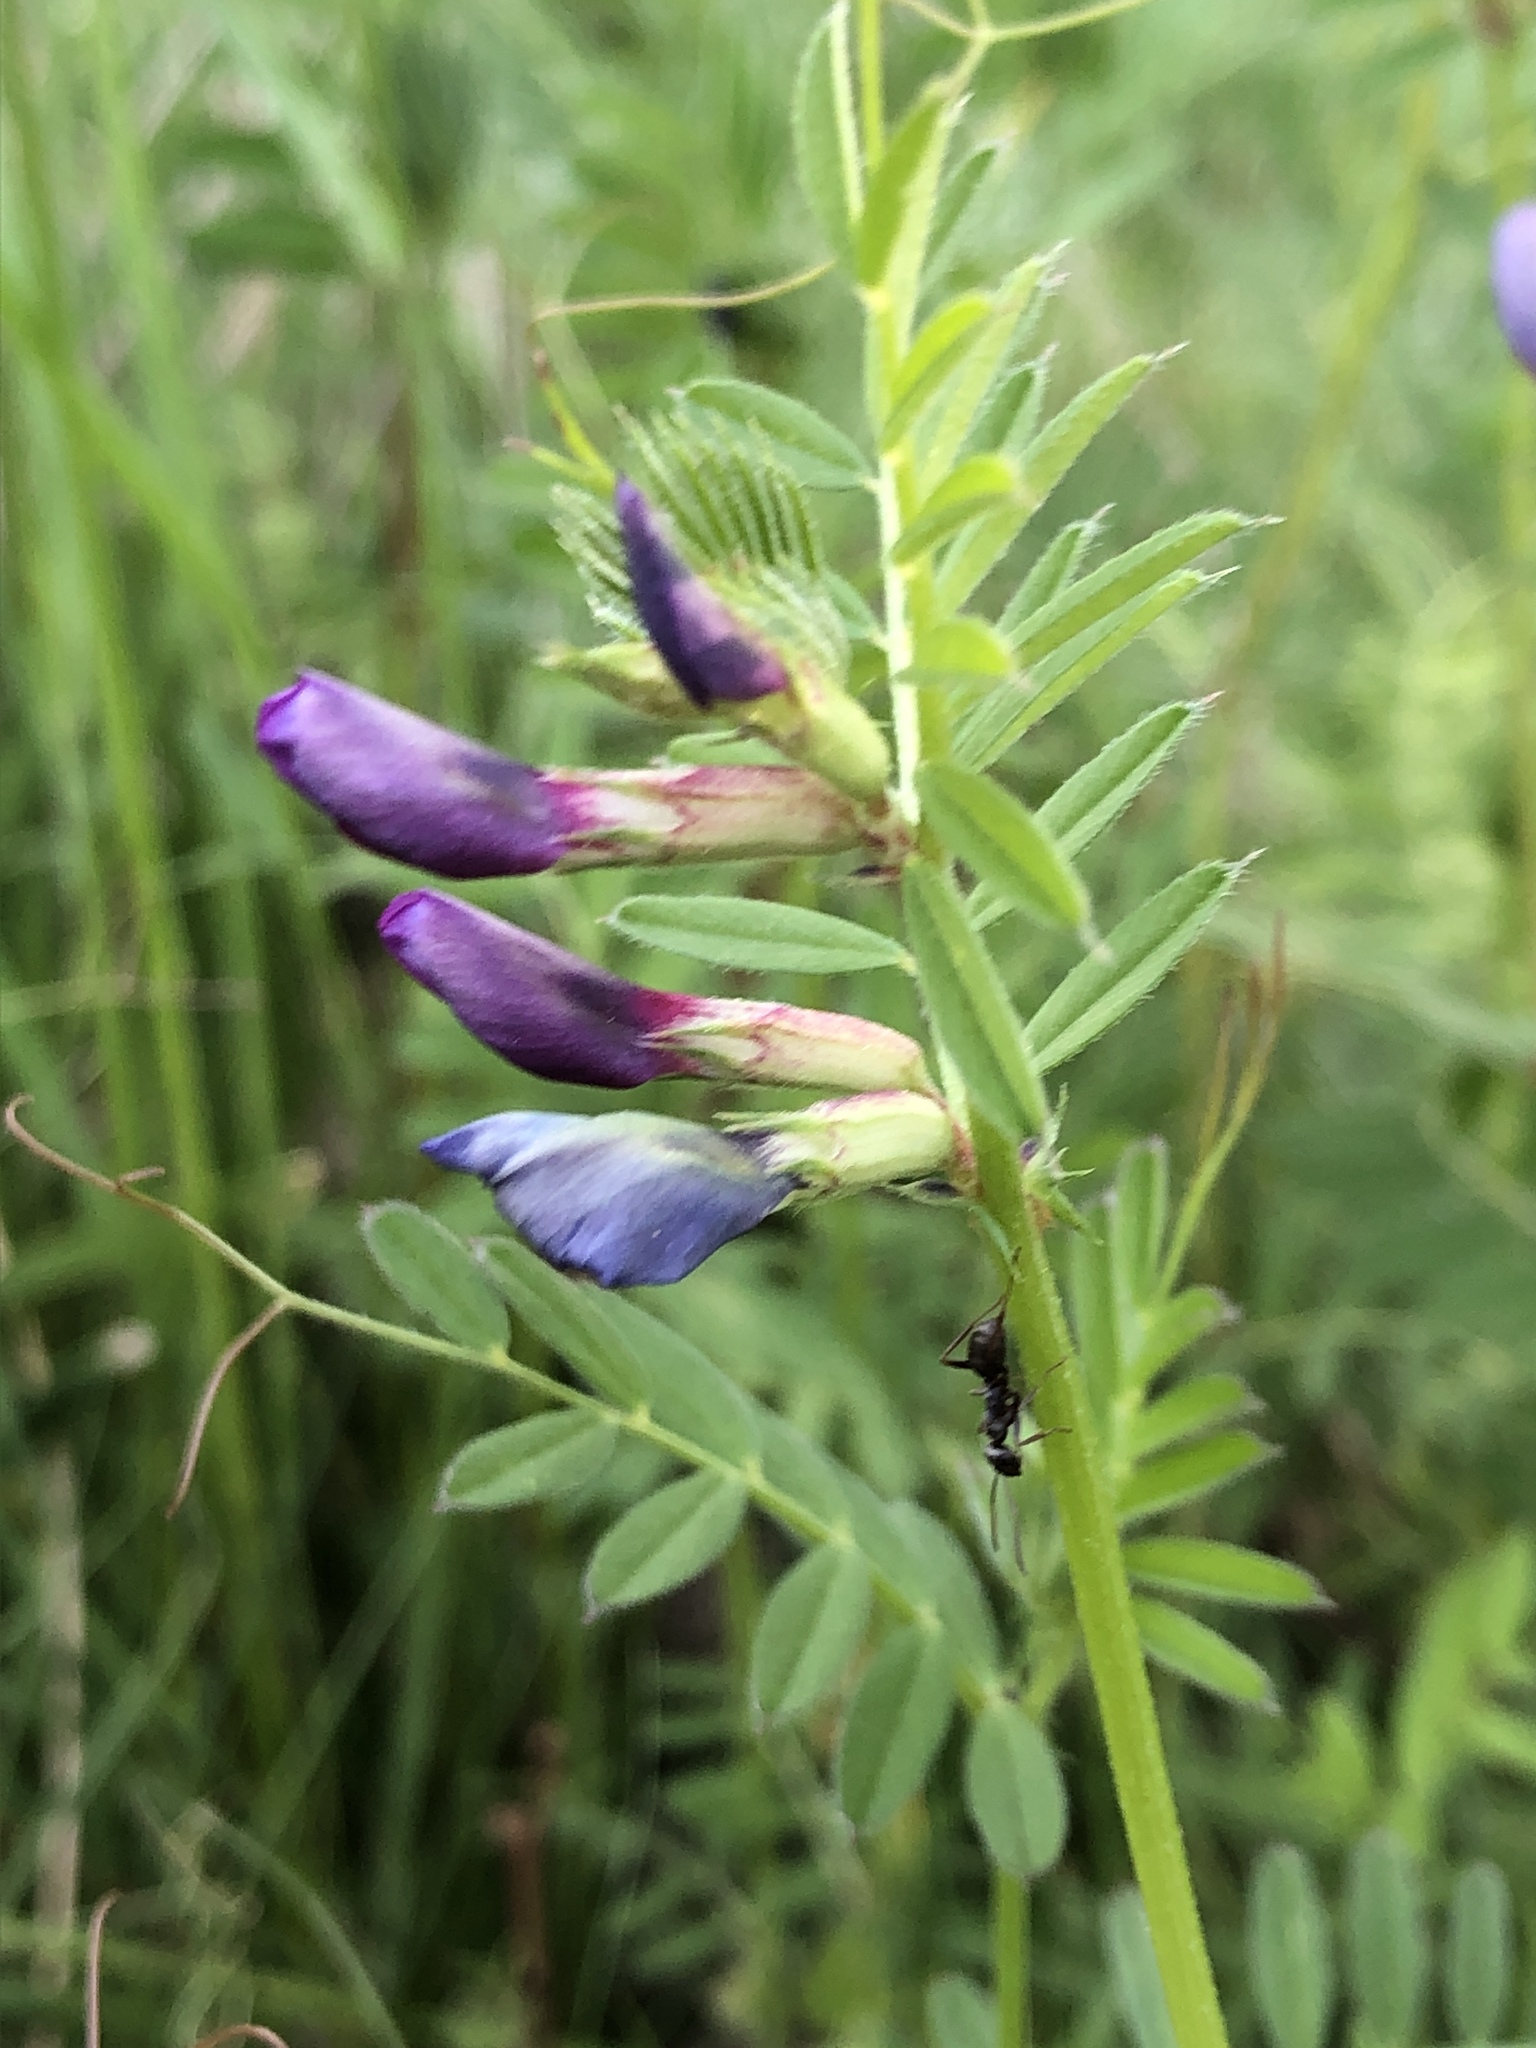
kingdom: Plantae
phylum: Tracheophyta
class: Magnoliopsida
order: Fabales
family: Fabaceae
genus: Vicia
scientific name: Vicia sativa
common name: Garden vetch
